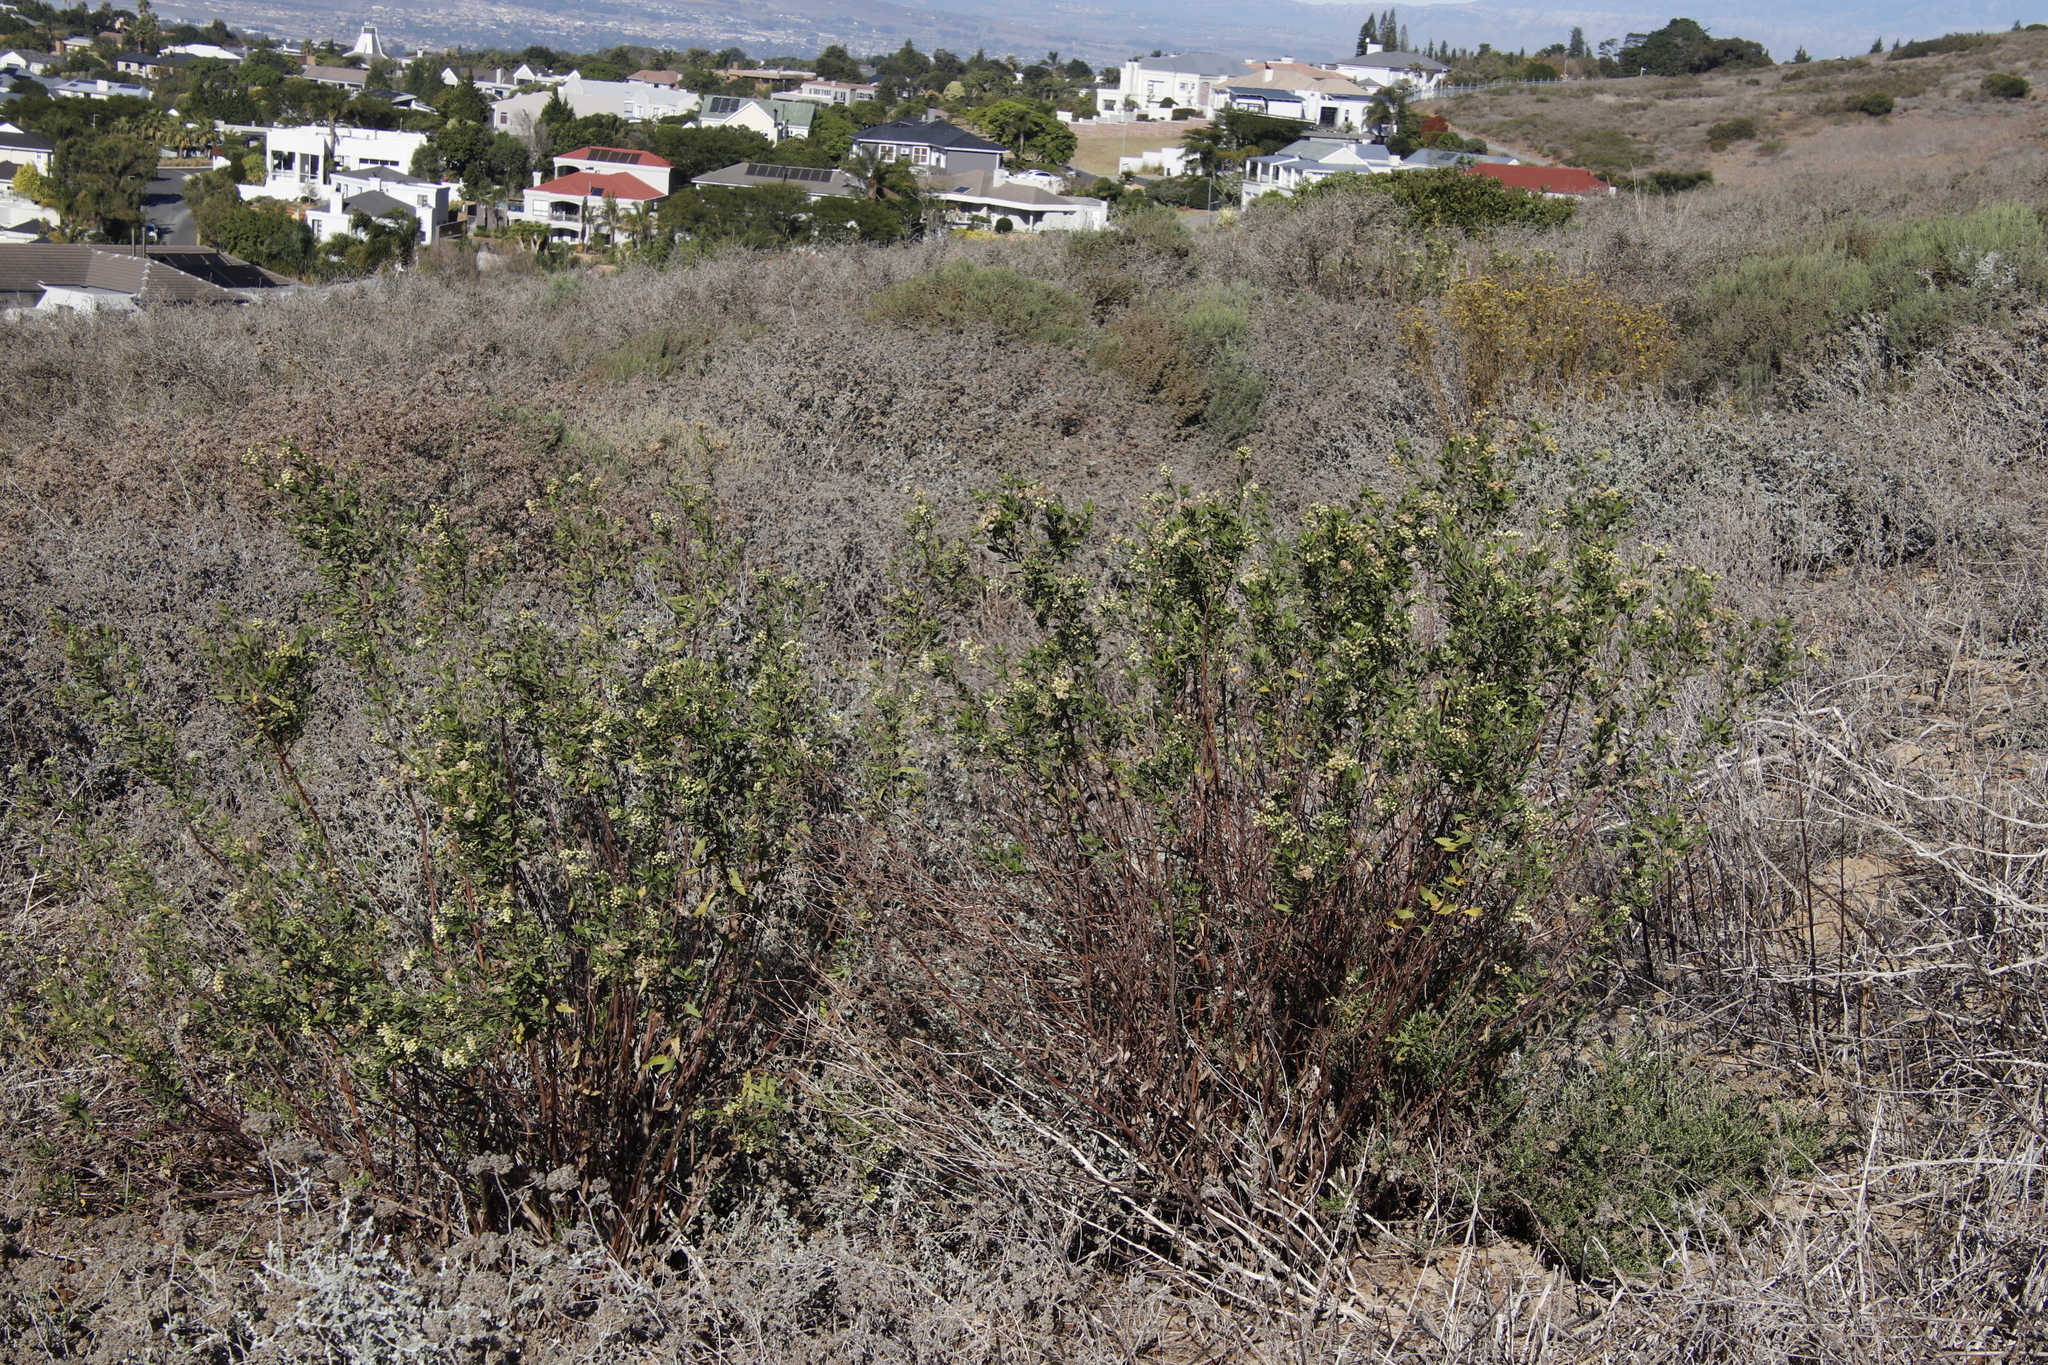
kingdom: Plantae
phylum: Tracheophyta
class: Magnoliopsida
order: Asterales
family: Asteraceae
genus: Nidorella
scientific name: Nidorella ivifolia
